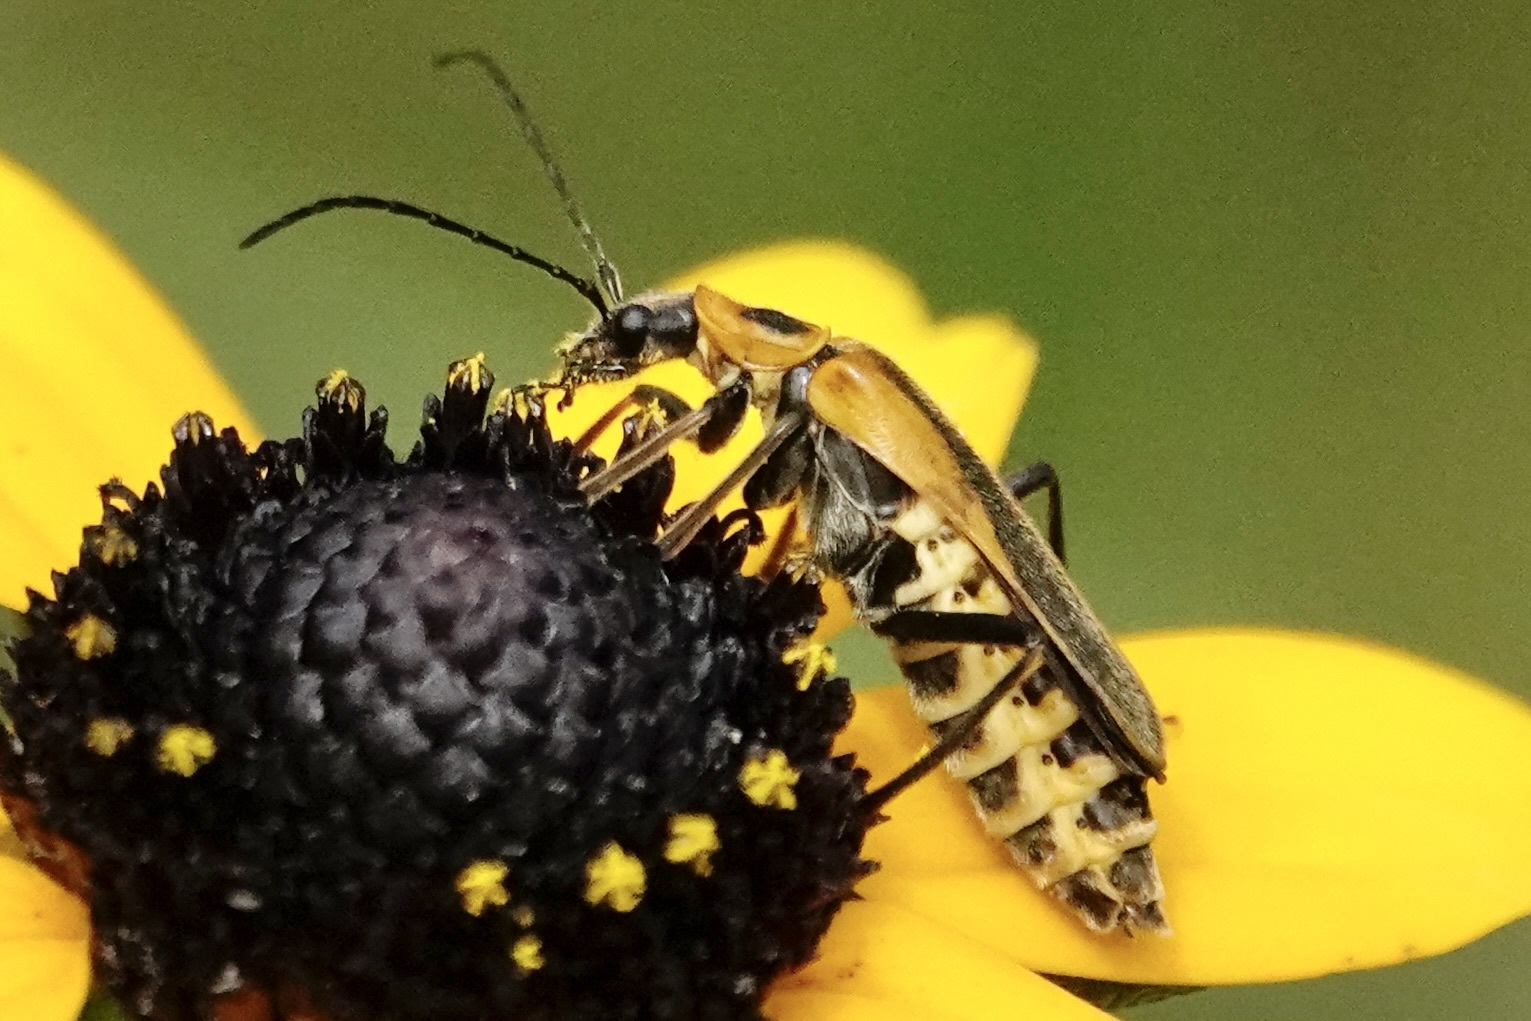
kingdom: Animalia
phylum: Arthropoda
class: Insecta
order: Coleoptera
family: Cantharidae
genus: Chauliognathus
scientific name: Chauliognathus pensylvanicus
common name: Goldenrod soldier beetle
